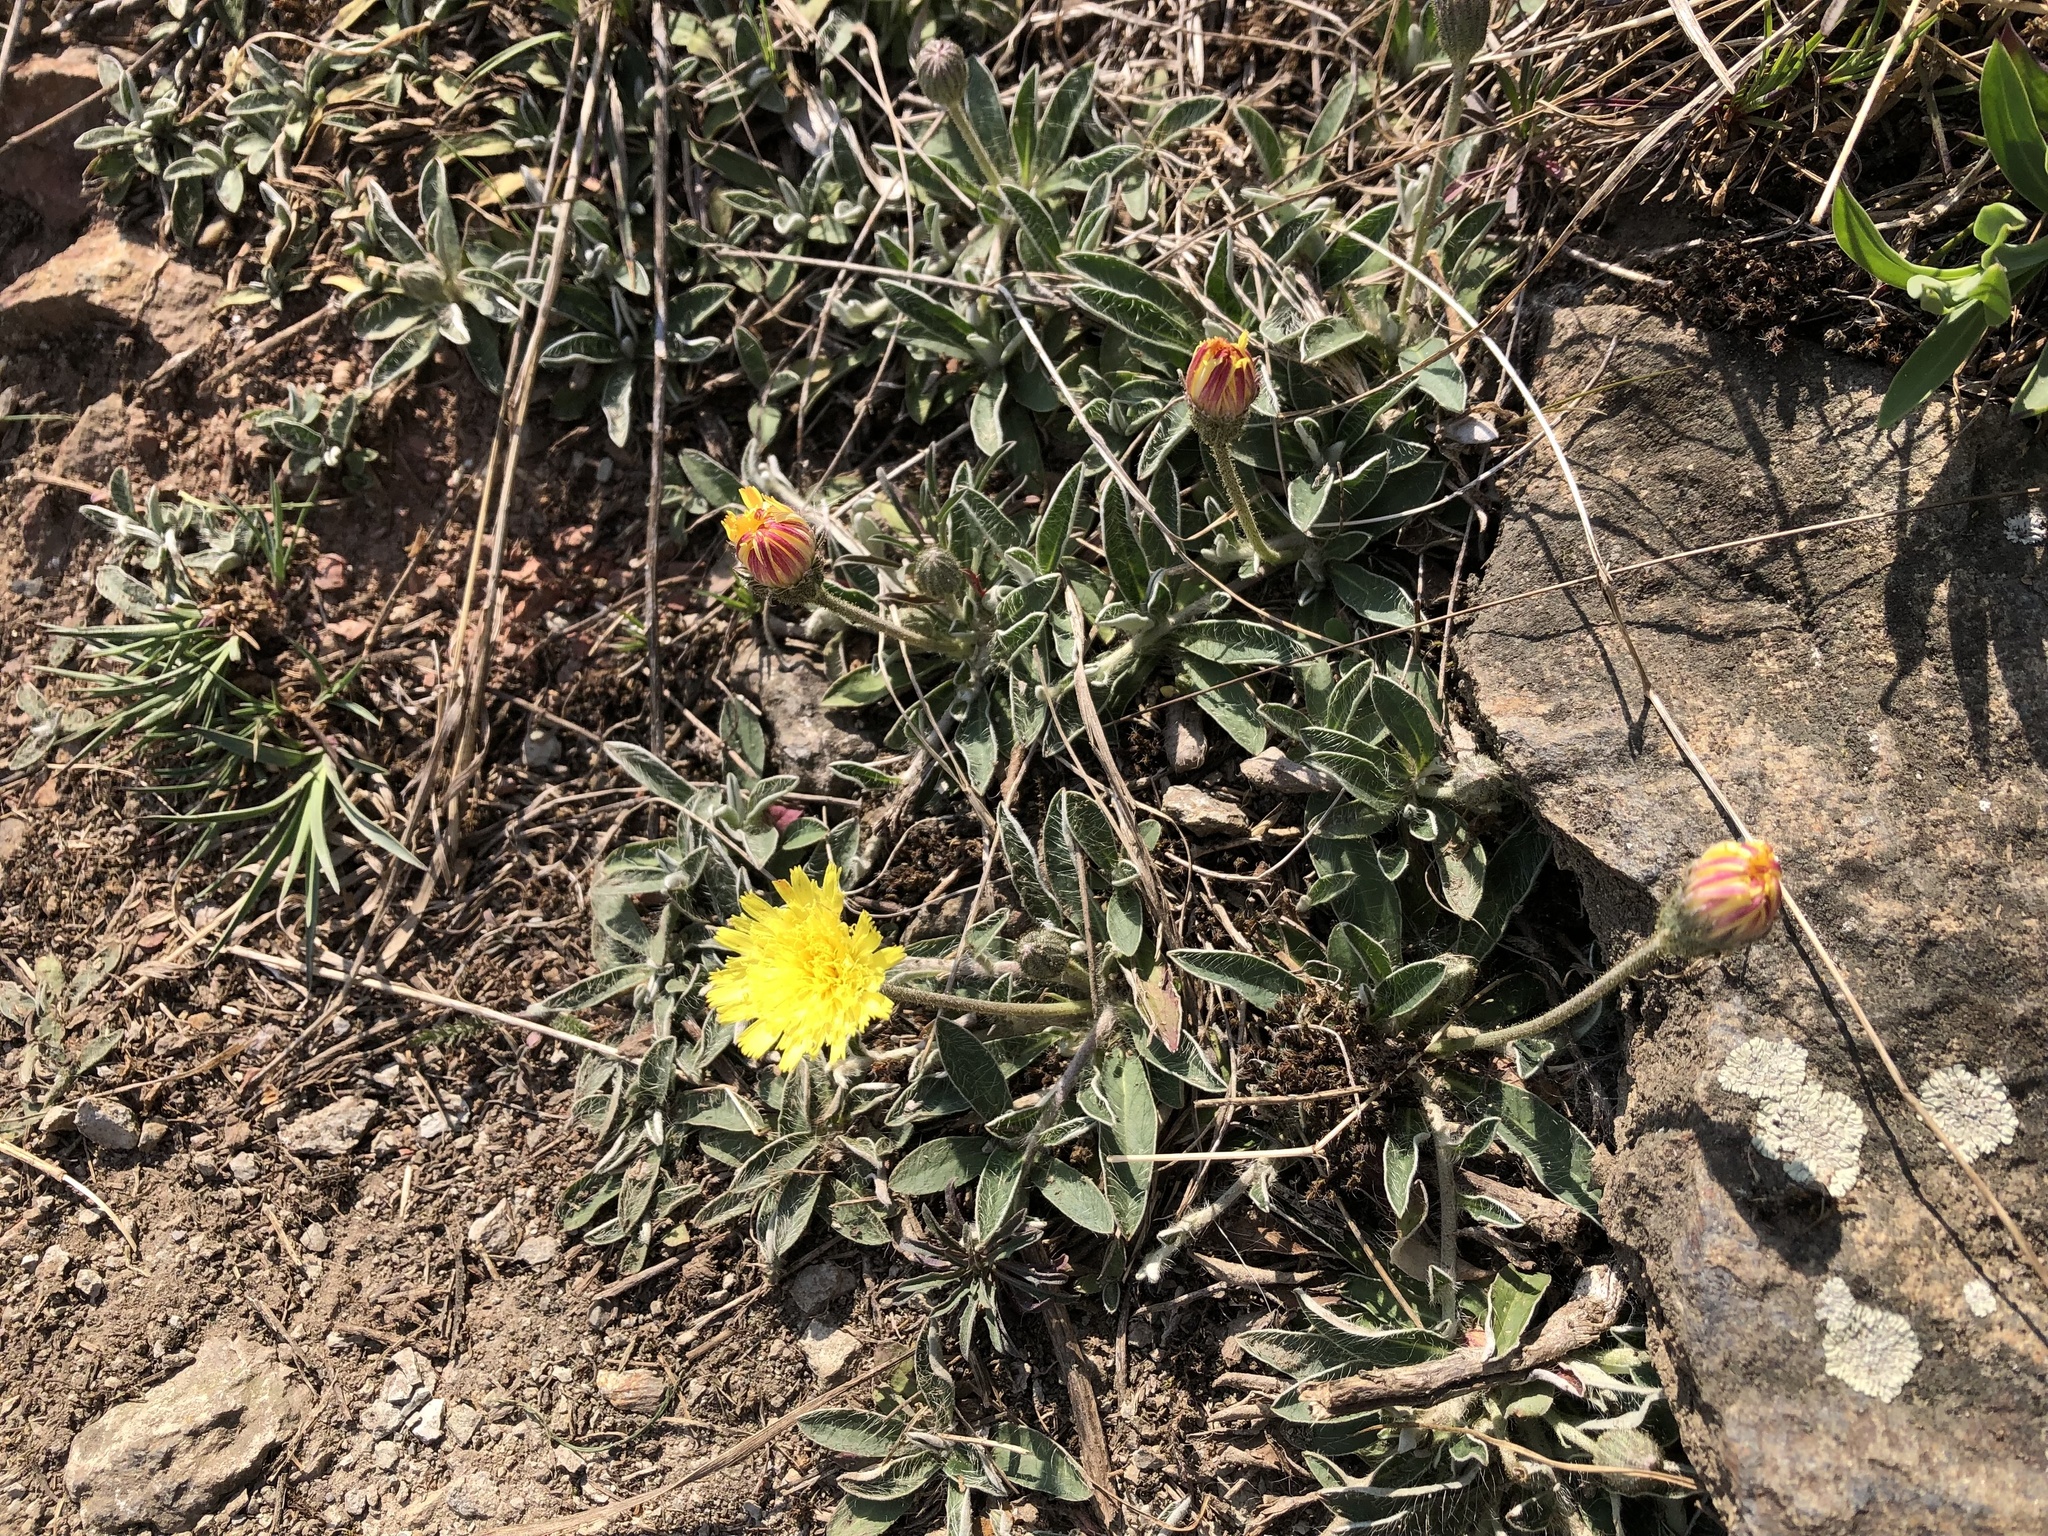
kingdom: Plantae
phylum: Tracheophyta
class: Magnoliopsida
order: Asterales
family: Asteraceae
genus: Pilosella
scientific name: Pilosella officinarum
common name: Mouse-ear hawkweed
